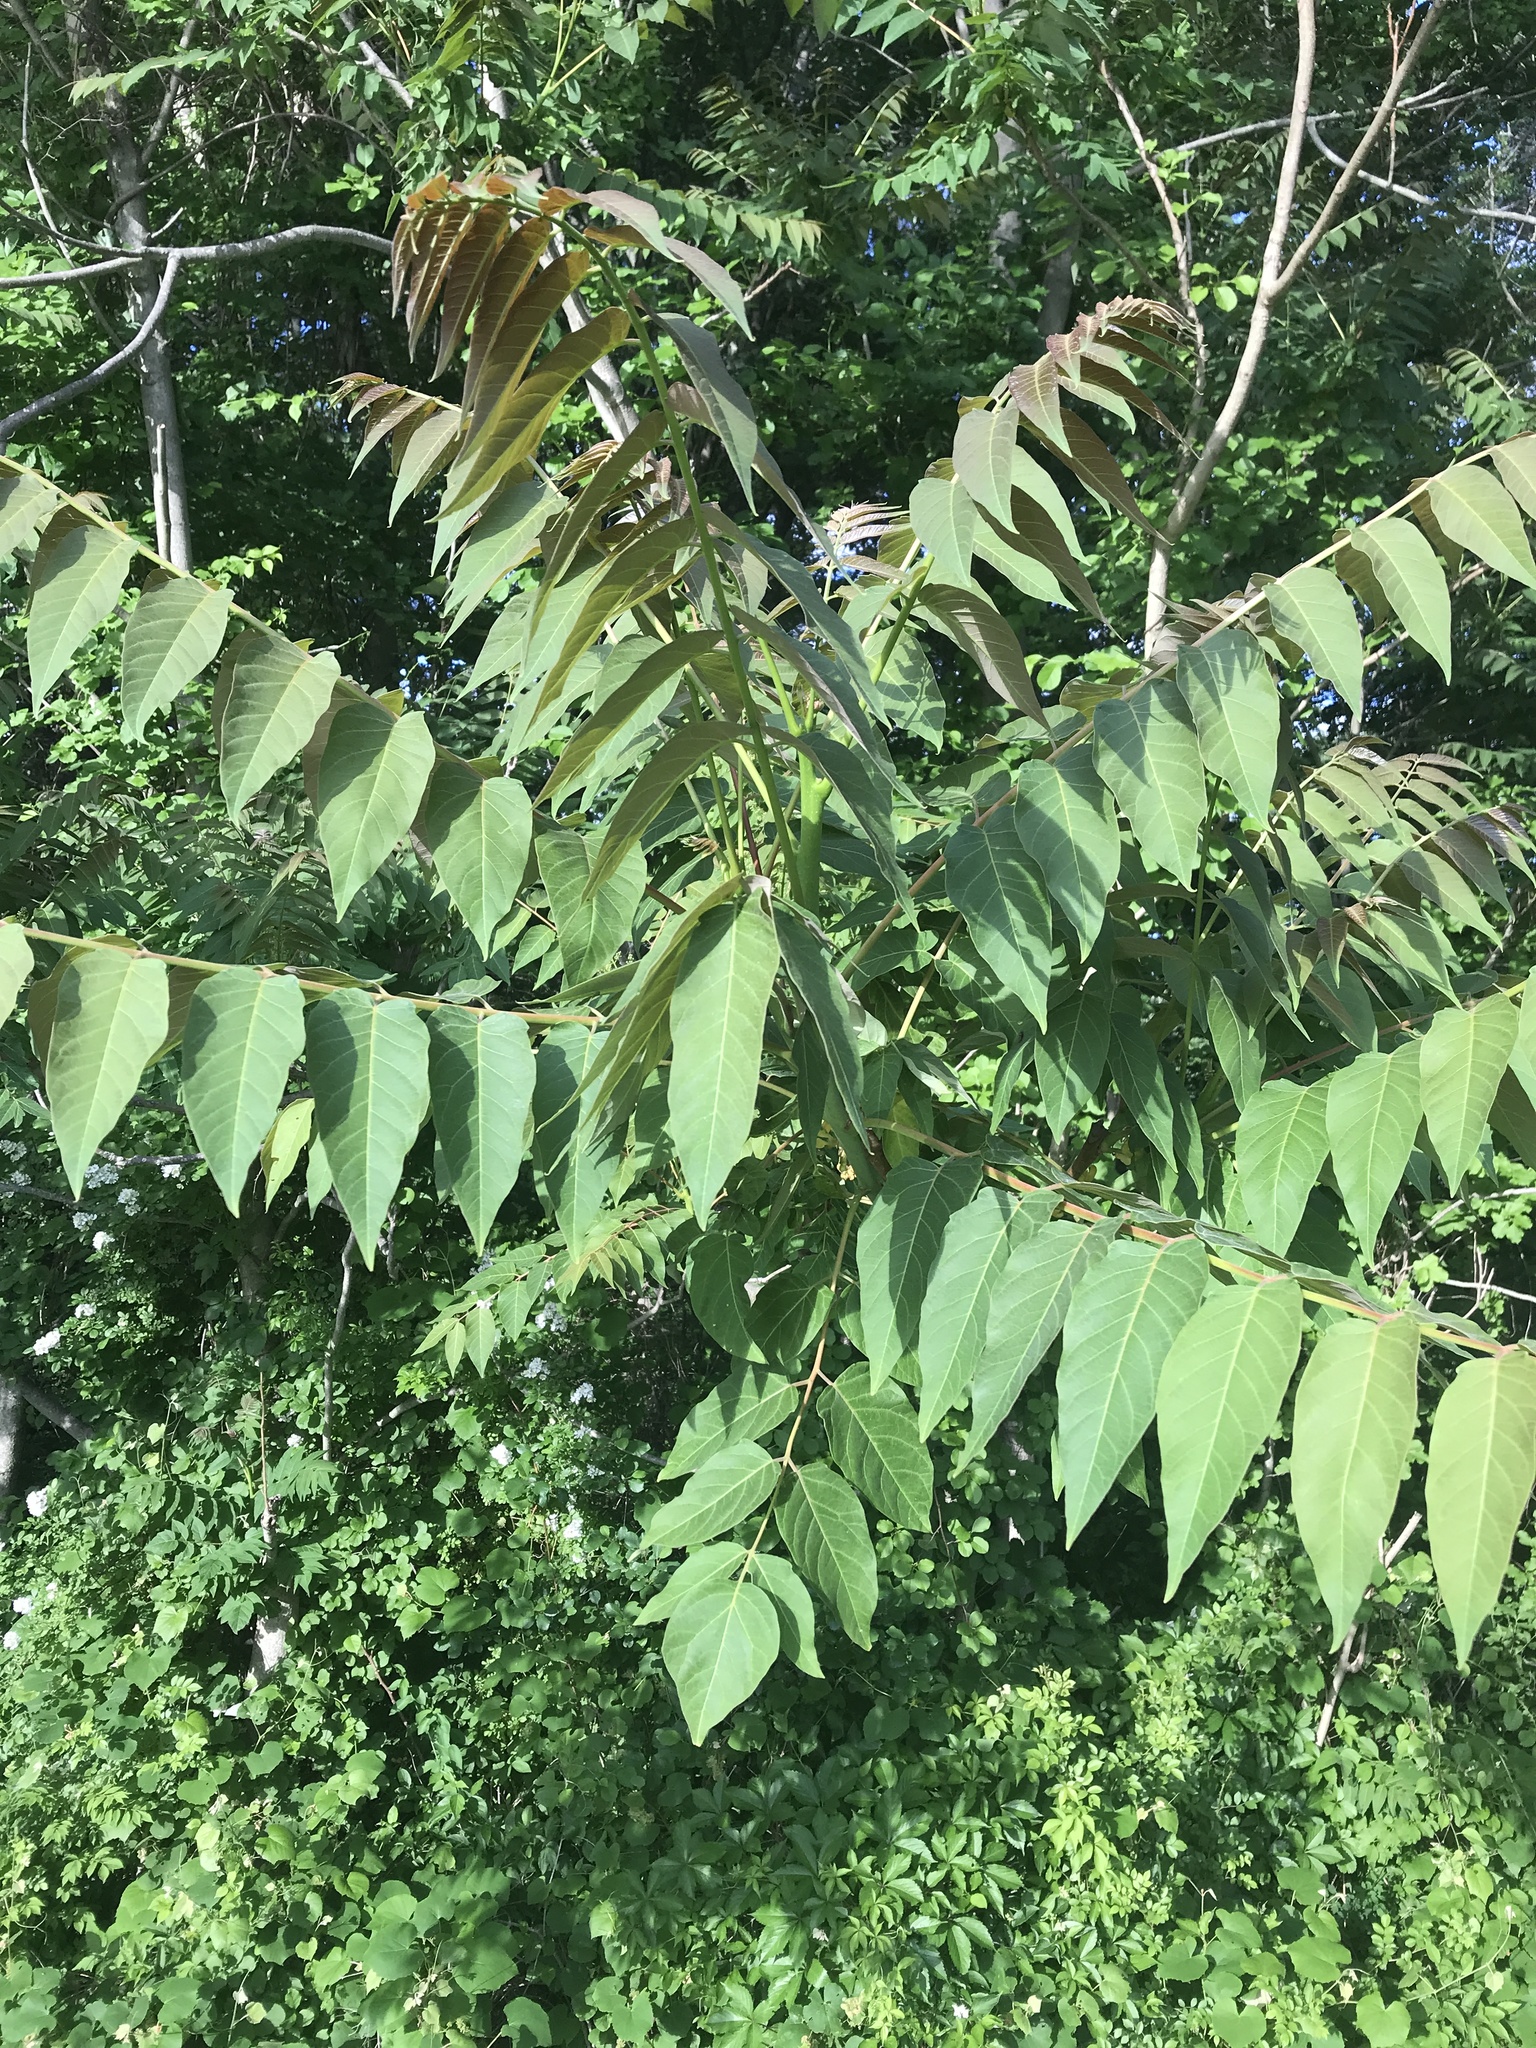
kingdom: Plantae
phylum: Tracheophyta
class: Magnoliopsida
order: Sapindales
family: Simaroubaceae
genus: Ailanthus
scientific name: Ailanthus altissima
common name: Tree-of-heaven
